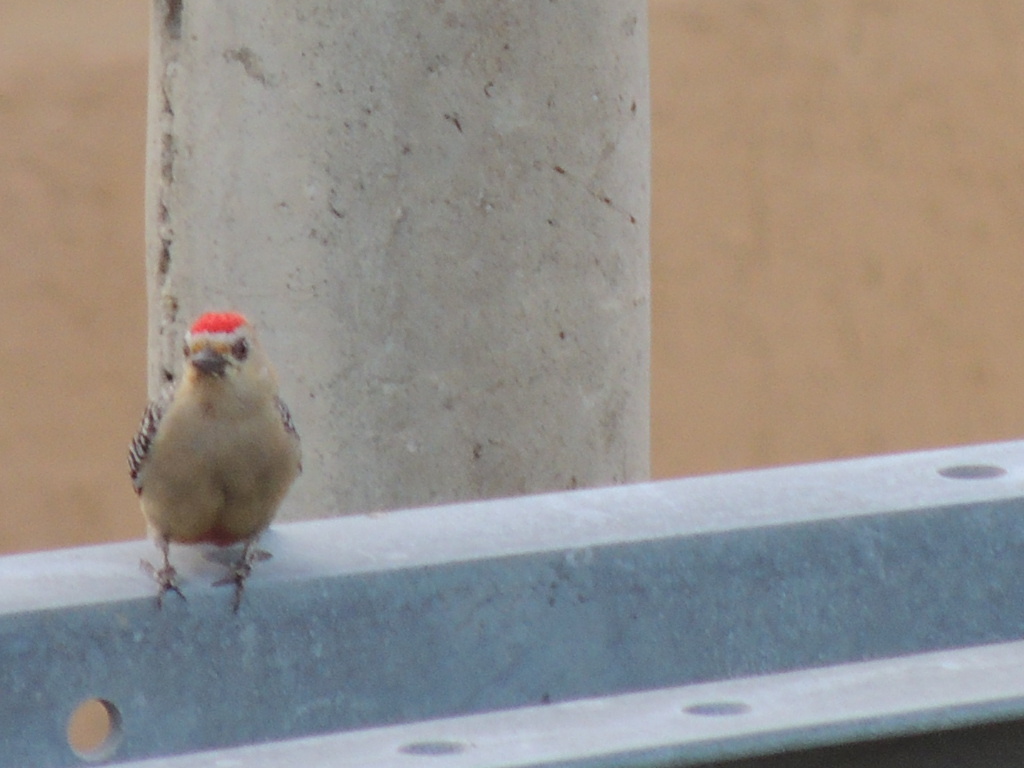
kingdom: Animalia
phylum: Chordata
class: Aves
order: Piciformes
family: Picidae
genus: Melanerpes
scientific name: Melanerpes rubricapillus
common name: Red-crowned woodpecker
